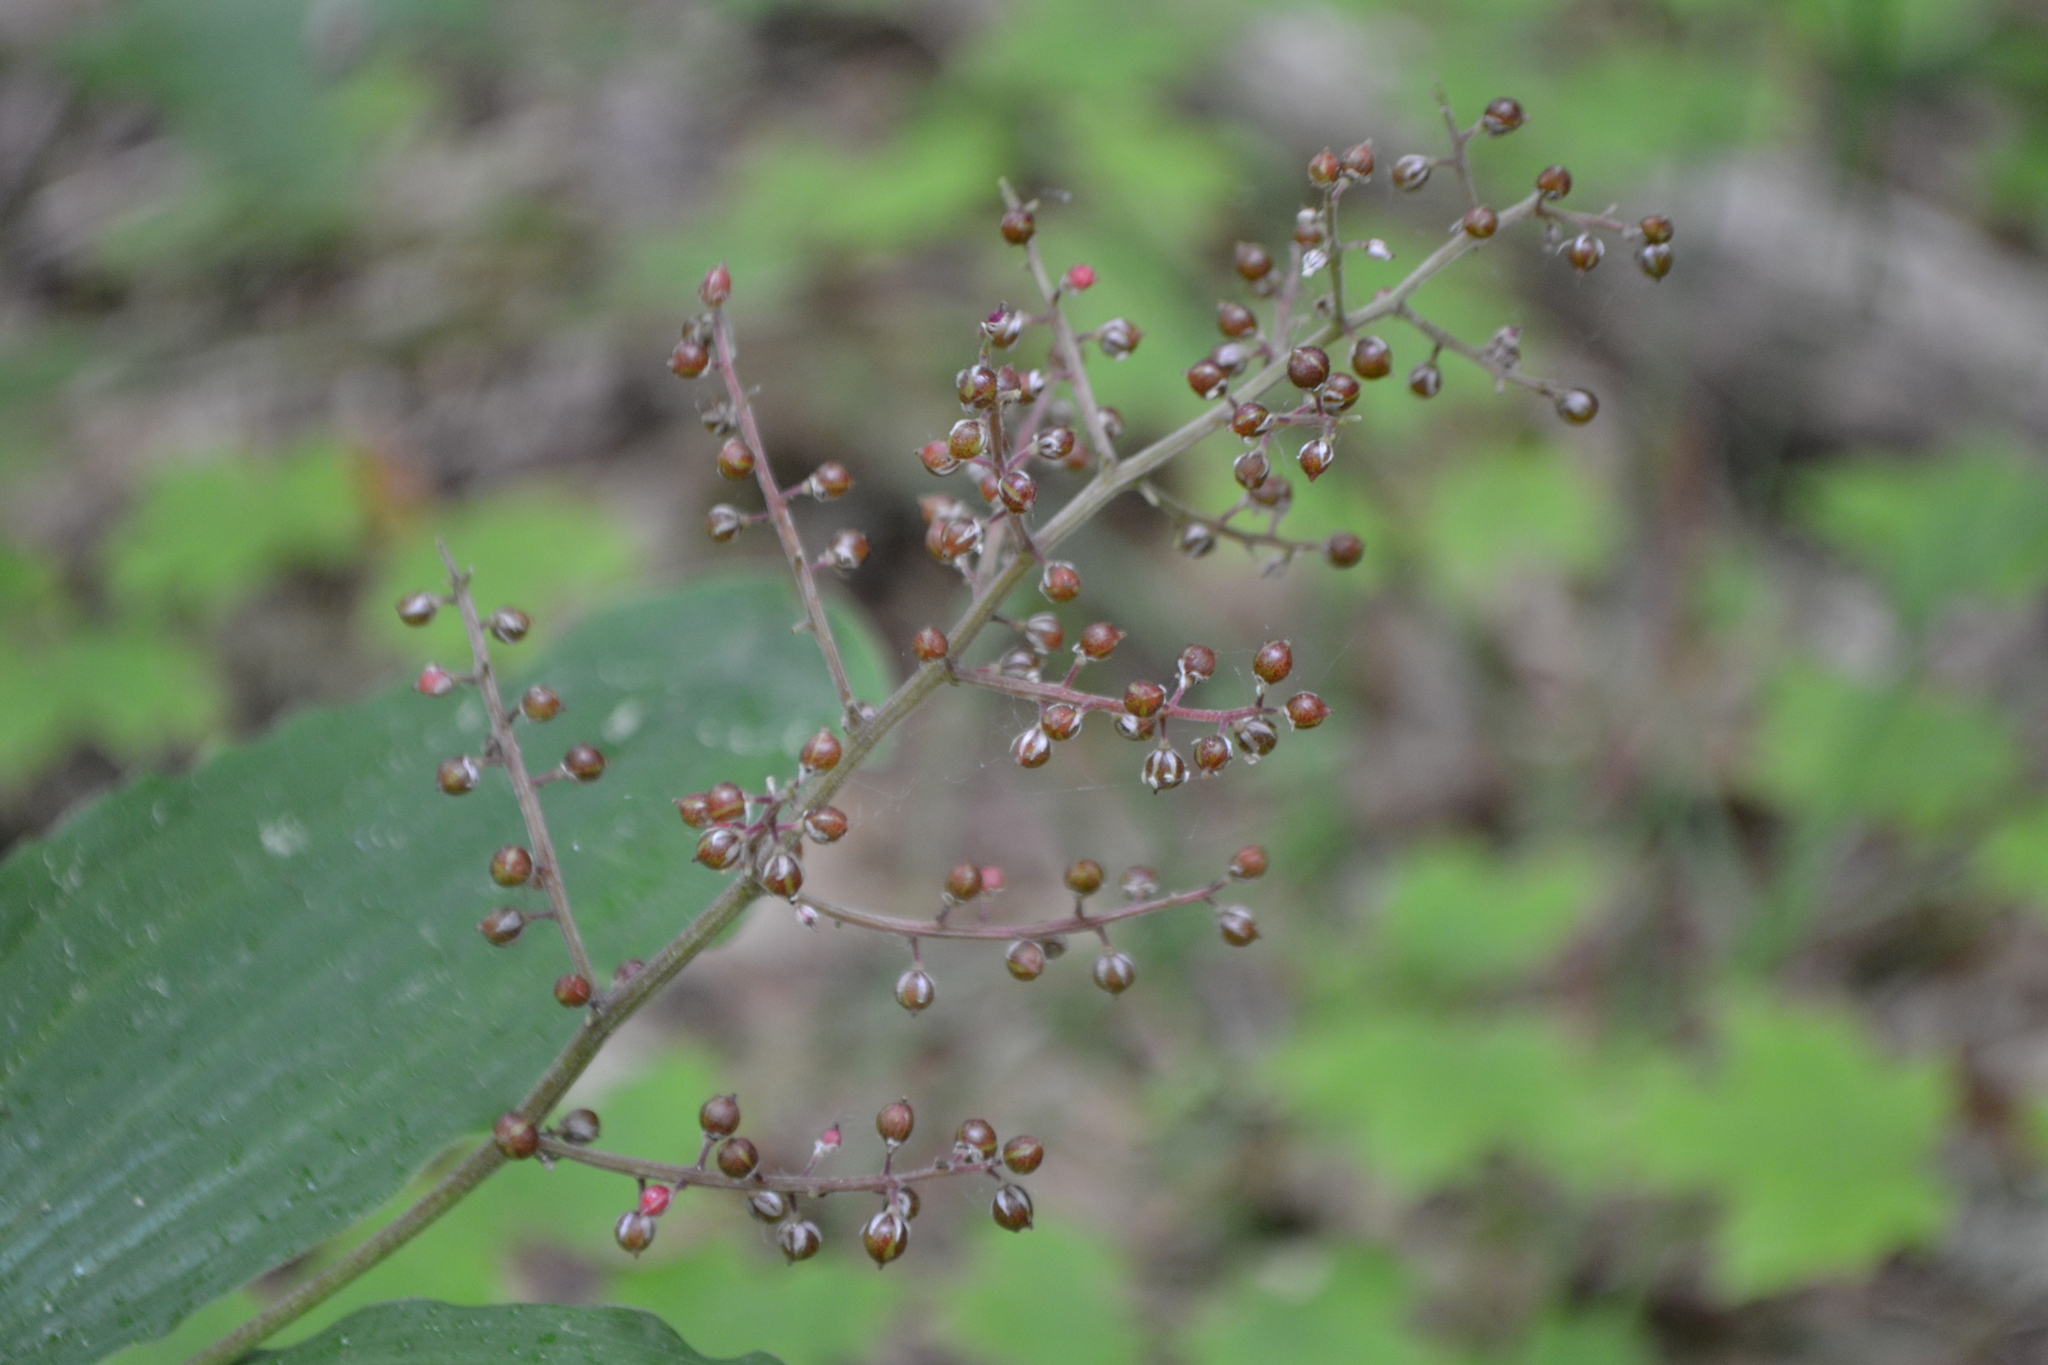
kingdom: Plantae
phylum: Tracheophyta
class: Liliopsida
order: Asparagales
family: Asparagaceae
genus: Maianthemum
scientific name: Maianthemum racemosum
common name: False spikenard
